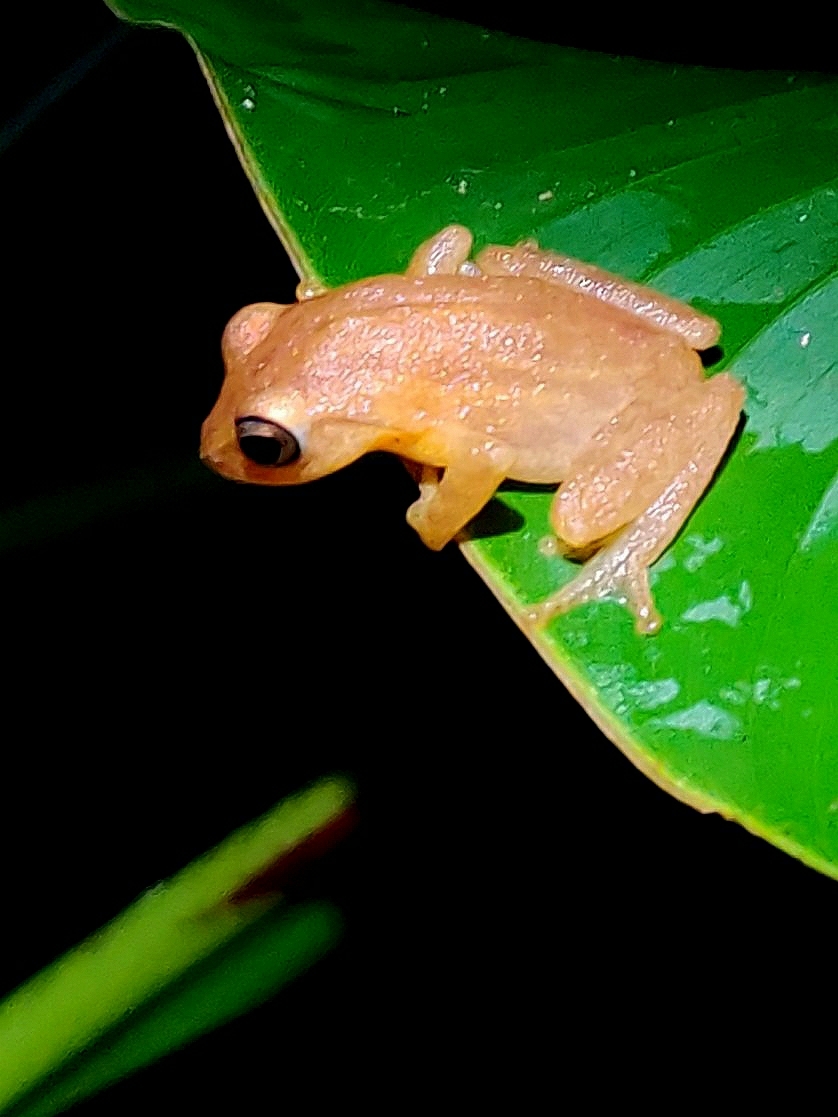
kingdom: Animalia
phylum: Chordata
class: Amphibia
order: Anura
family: Rhacophoridae
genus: Raorchestes
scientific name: Raorchestes luteolus
